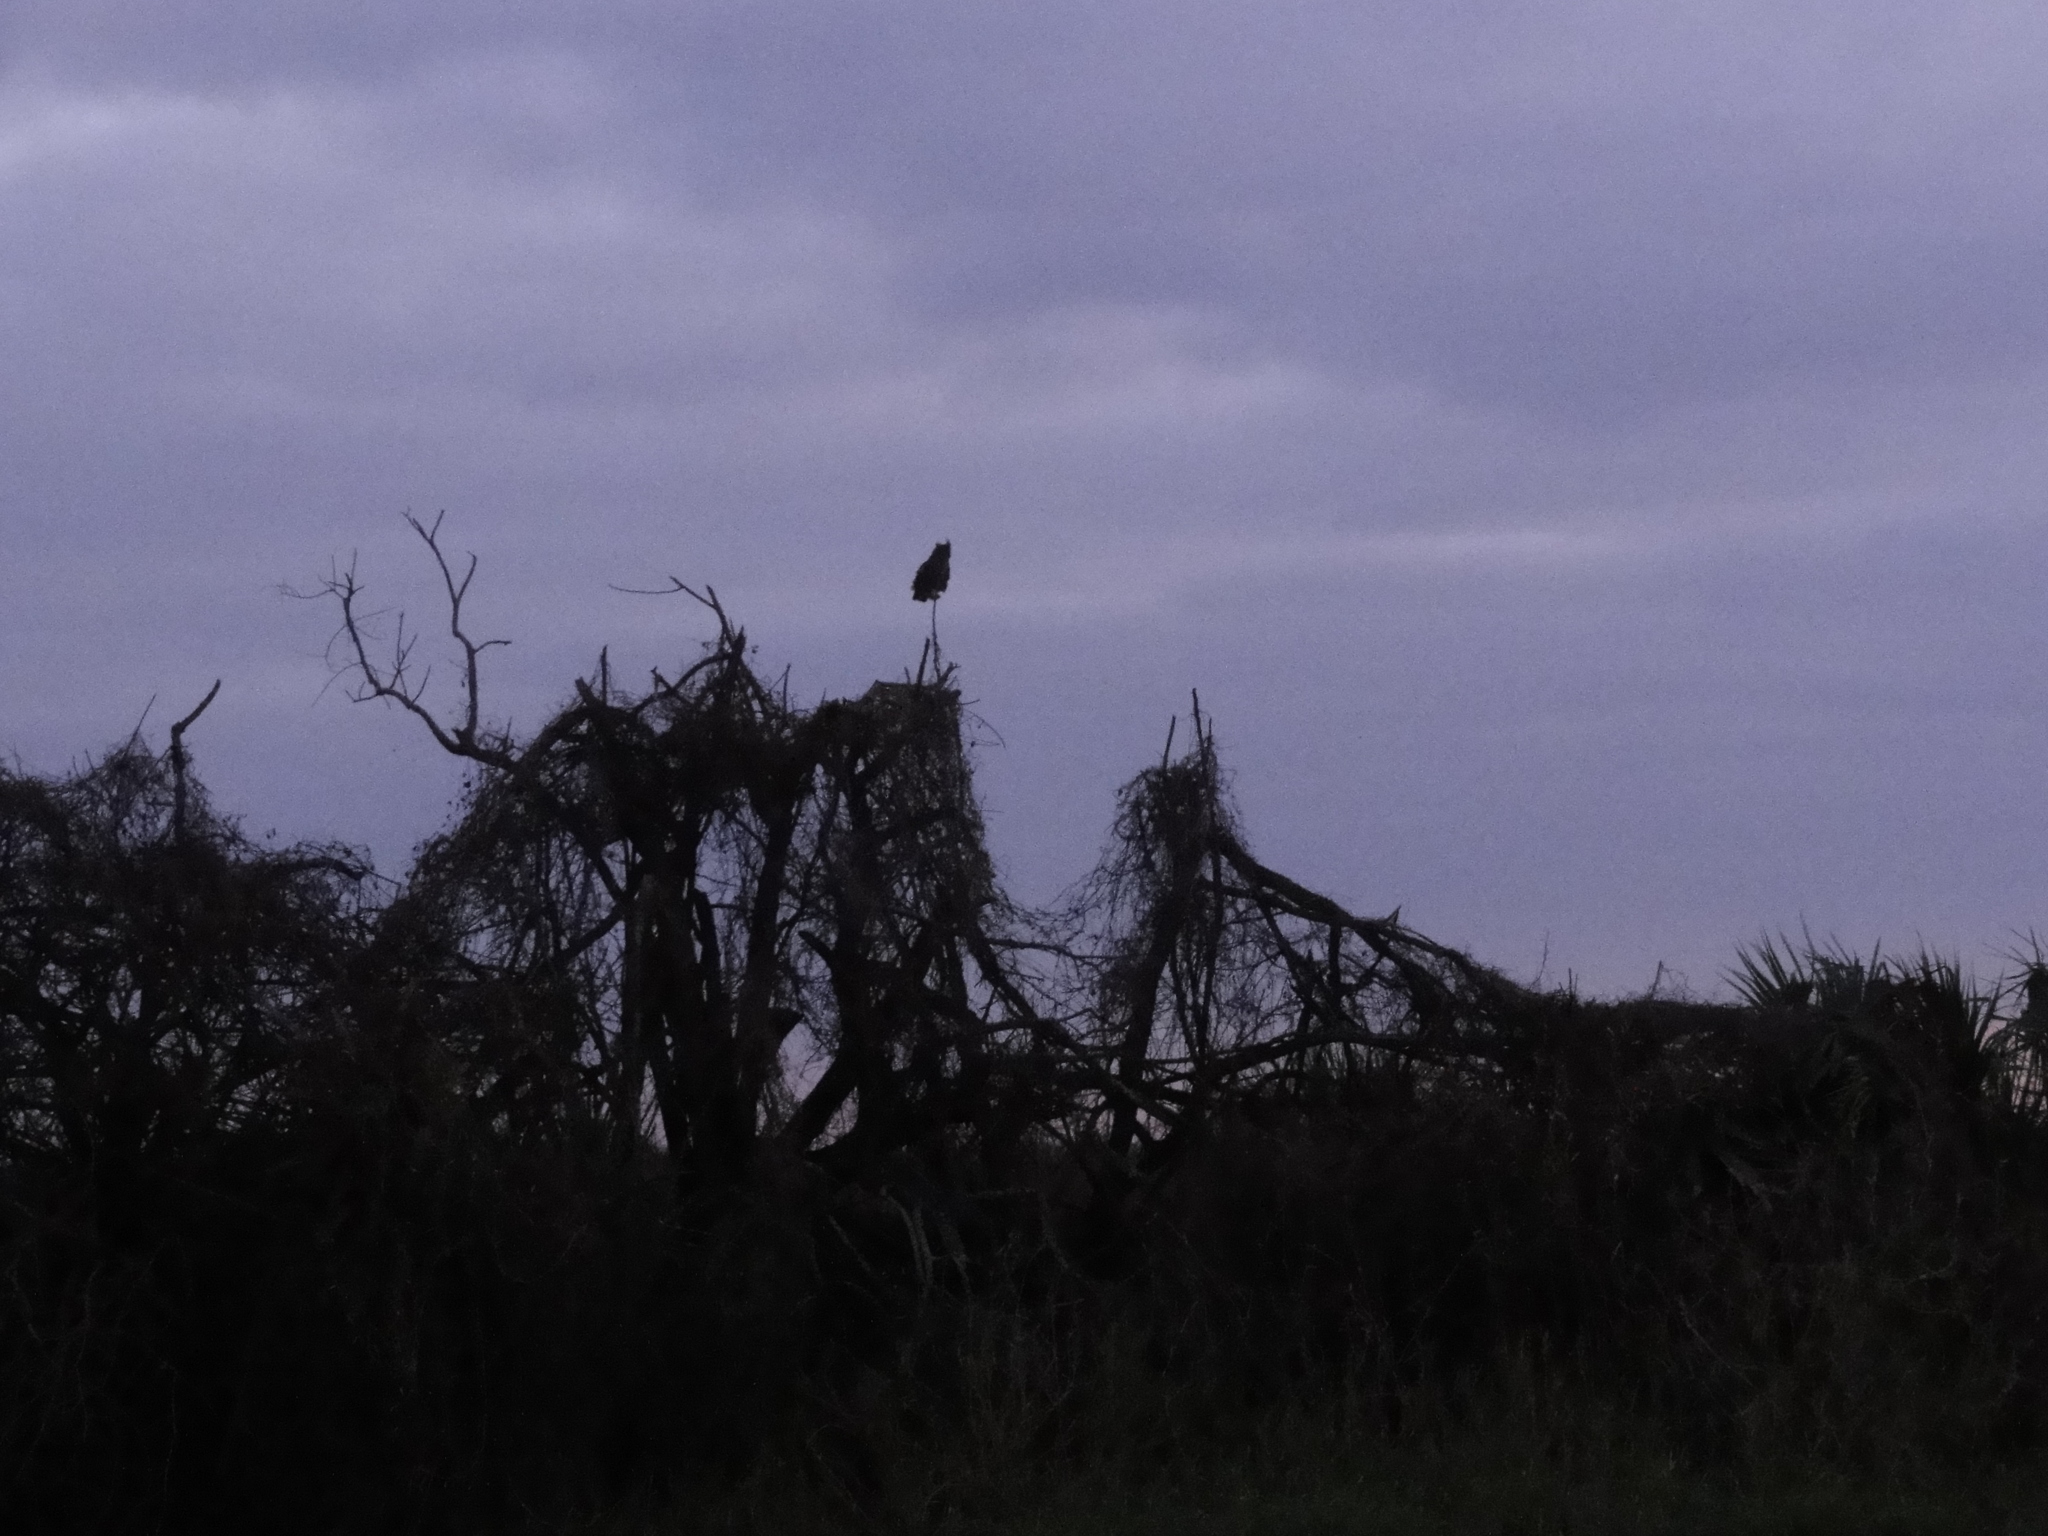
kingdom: Animalia
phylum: Chordata
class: Aves
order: Strigiformes
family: Strigidae
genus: Bubo
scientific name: Bubo virginianus
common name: Great horned owl
